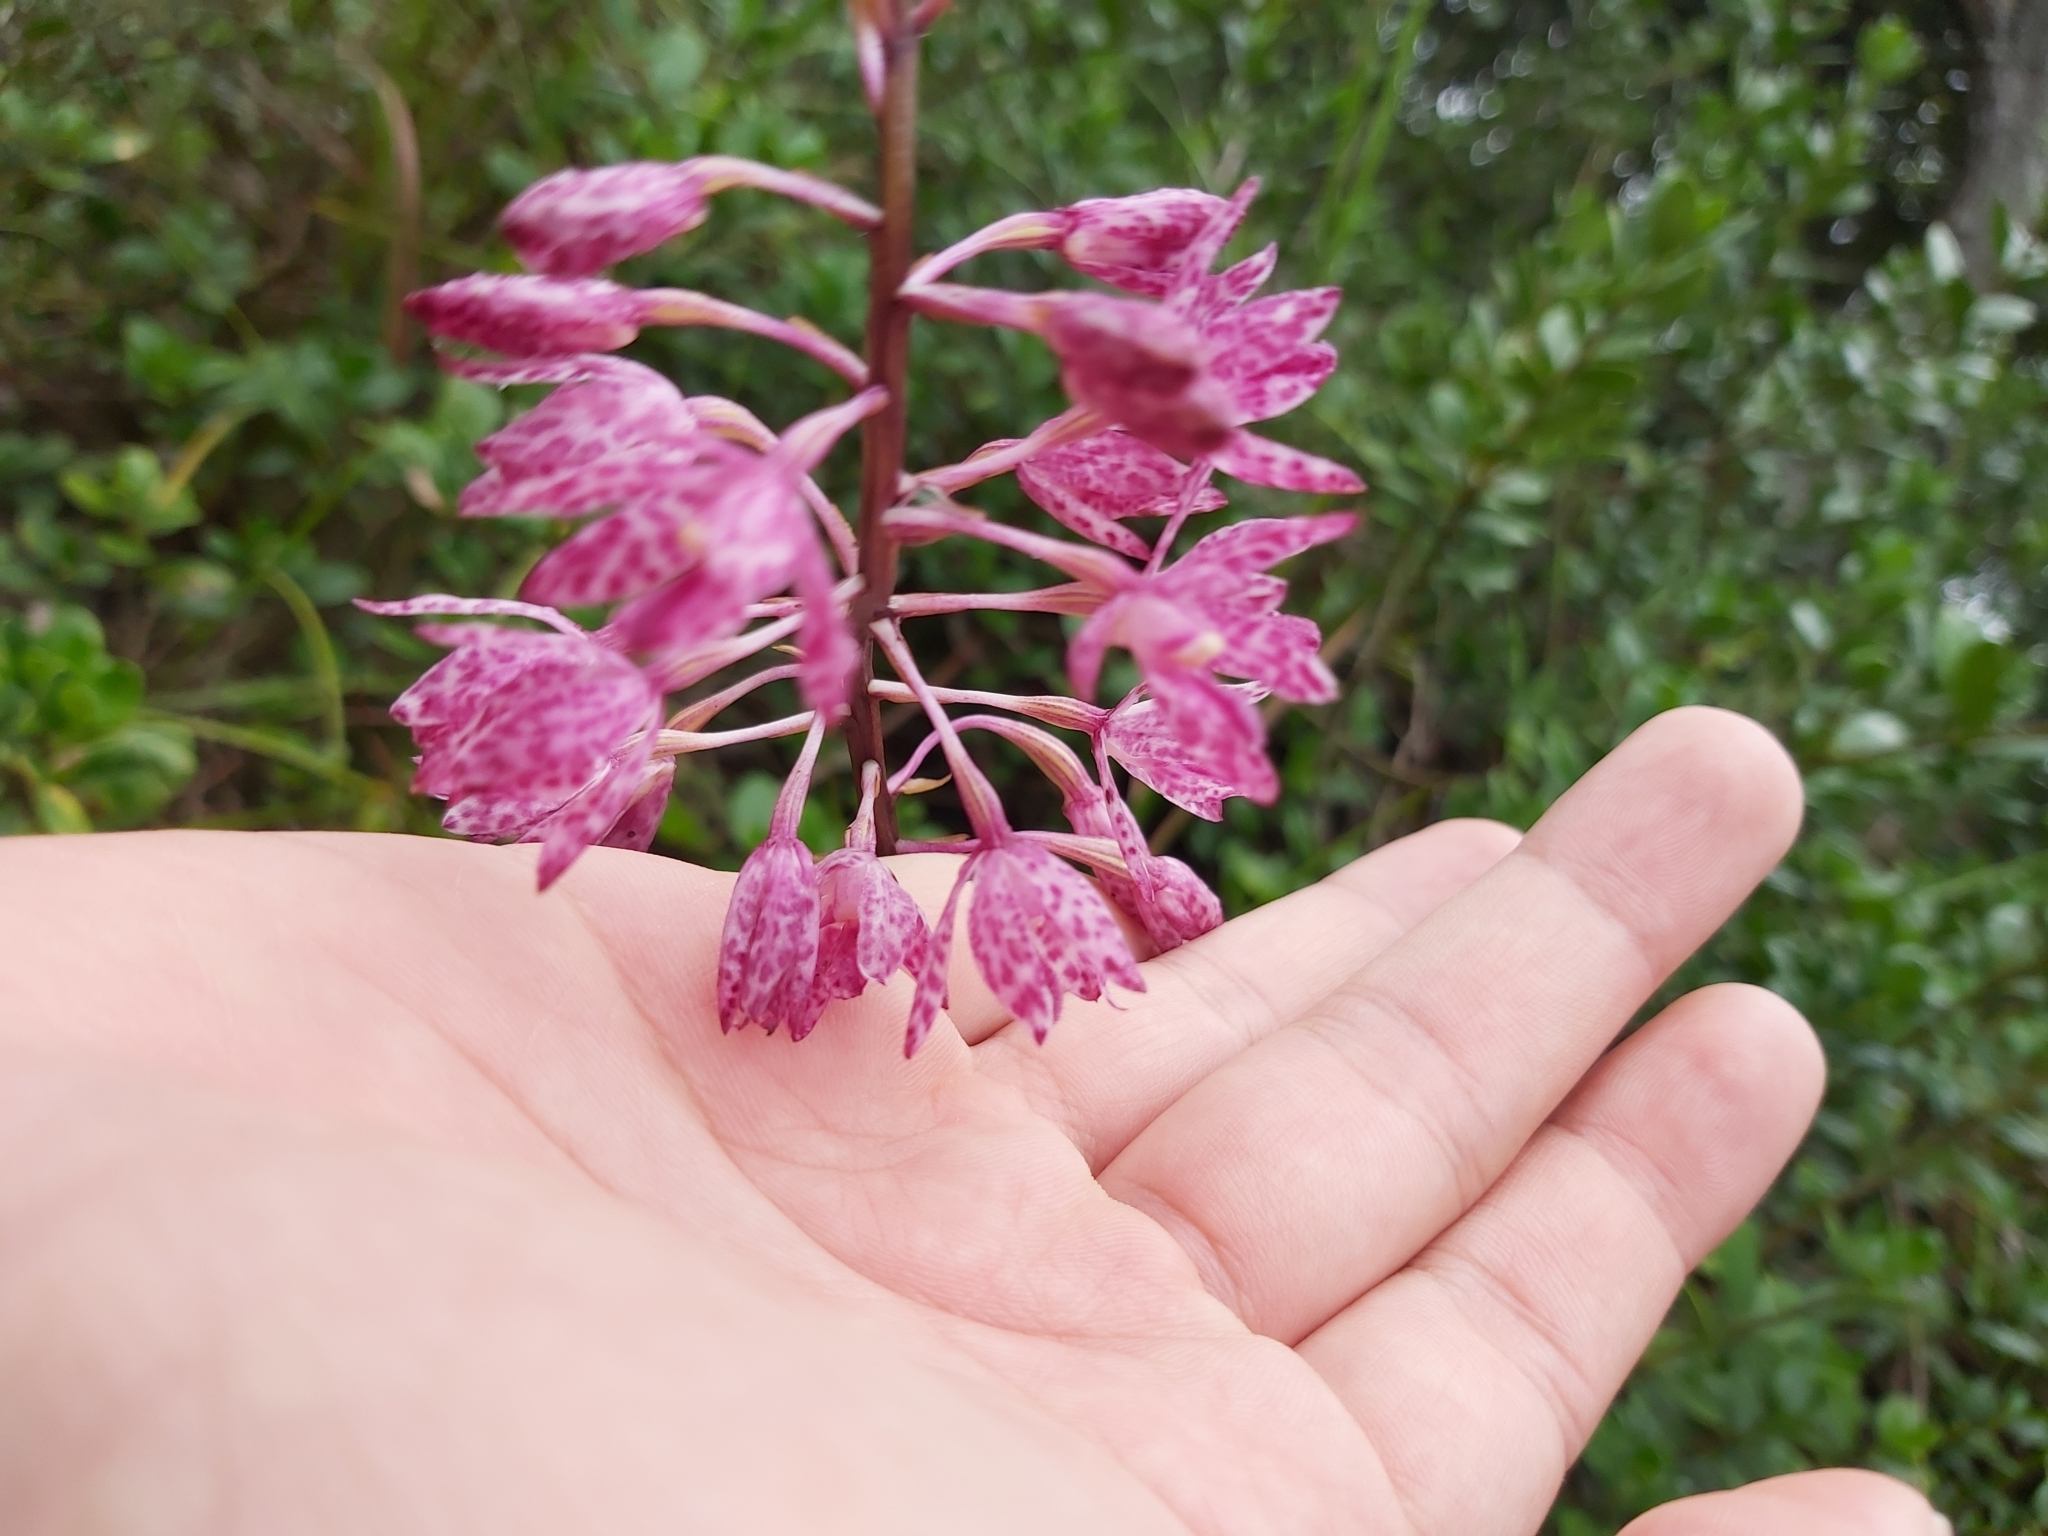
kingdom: Plantae
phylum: Tracheophyta
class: Liliopsida
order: Asparagales
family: Orchidaceae
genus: Dipodium
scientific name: Dipodium squamatum
